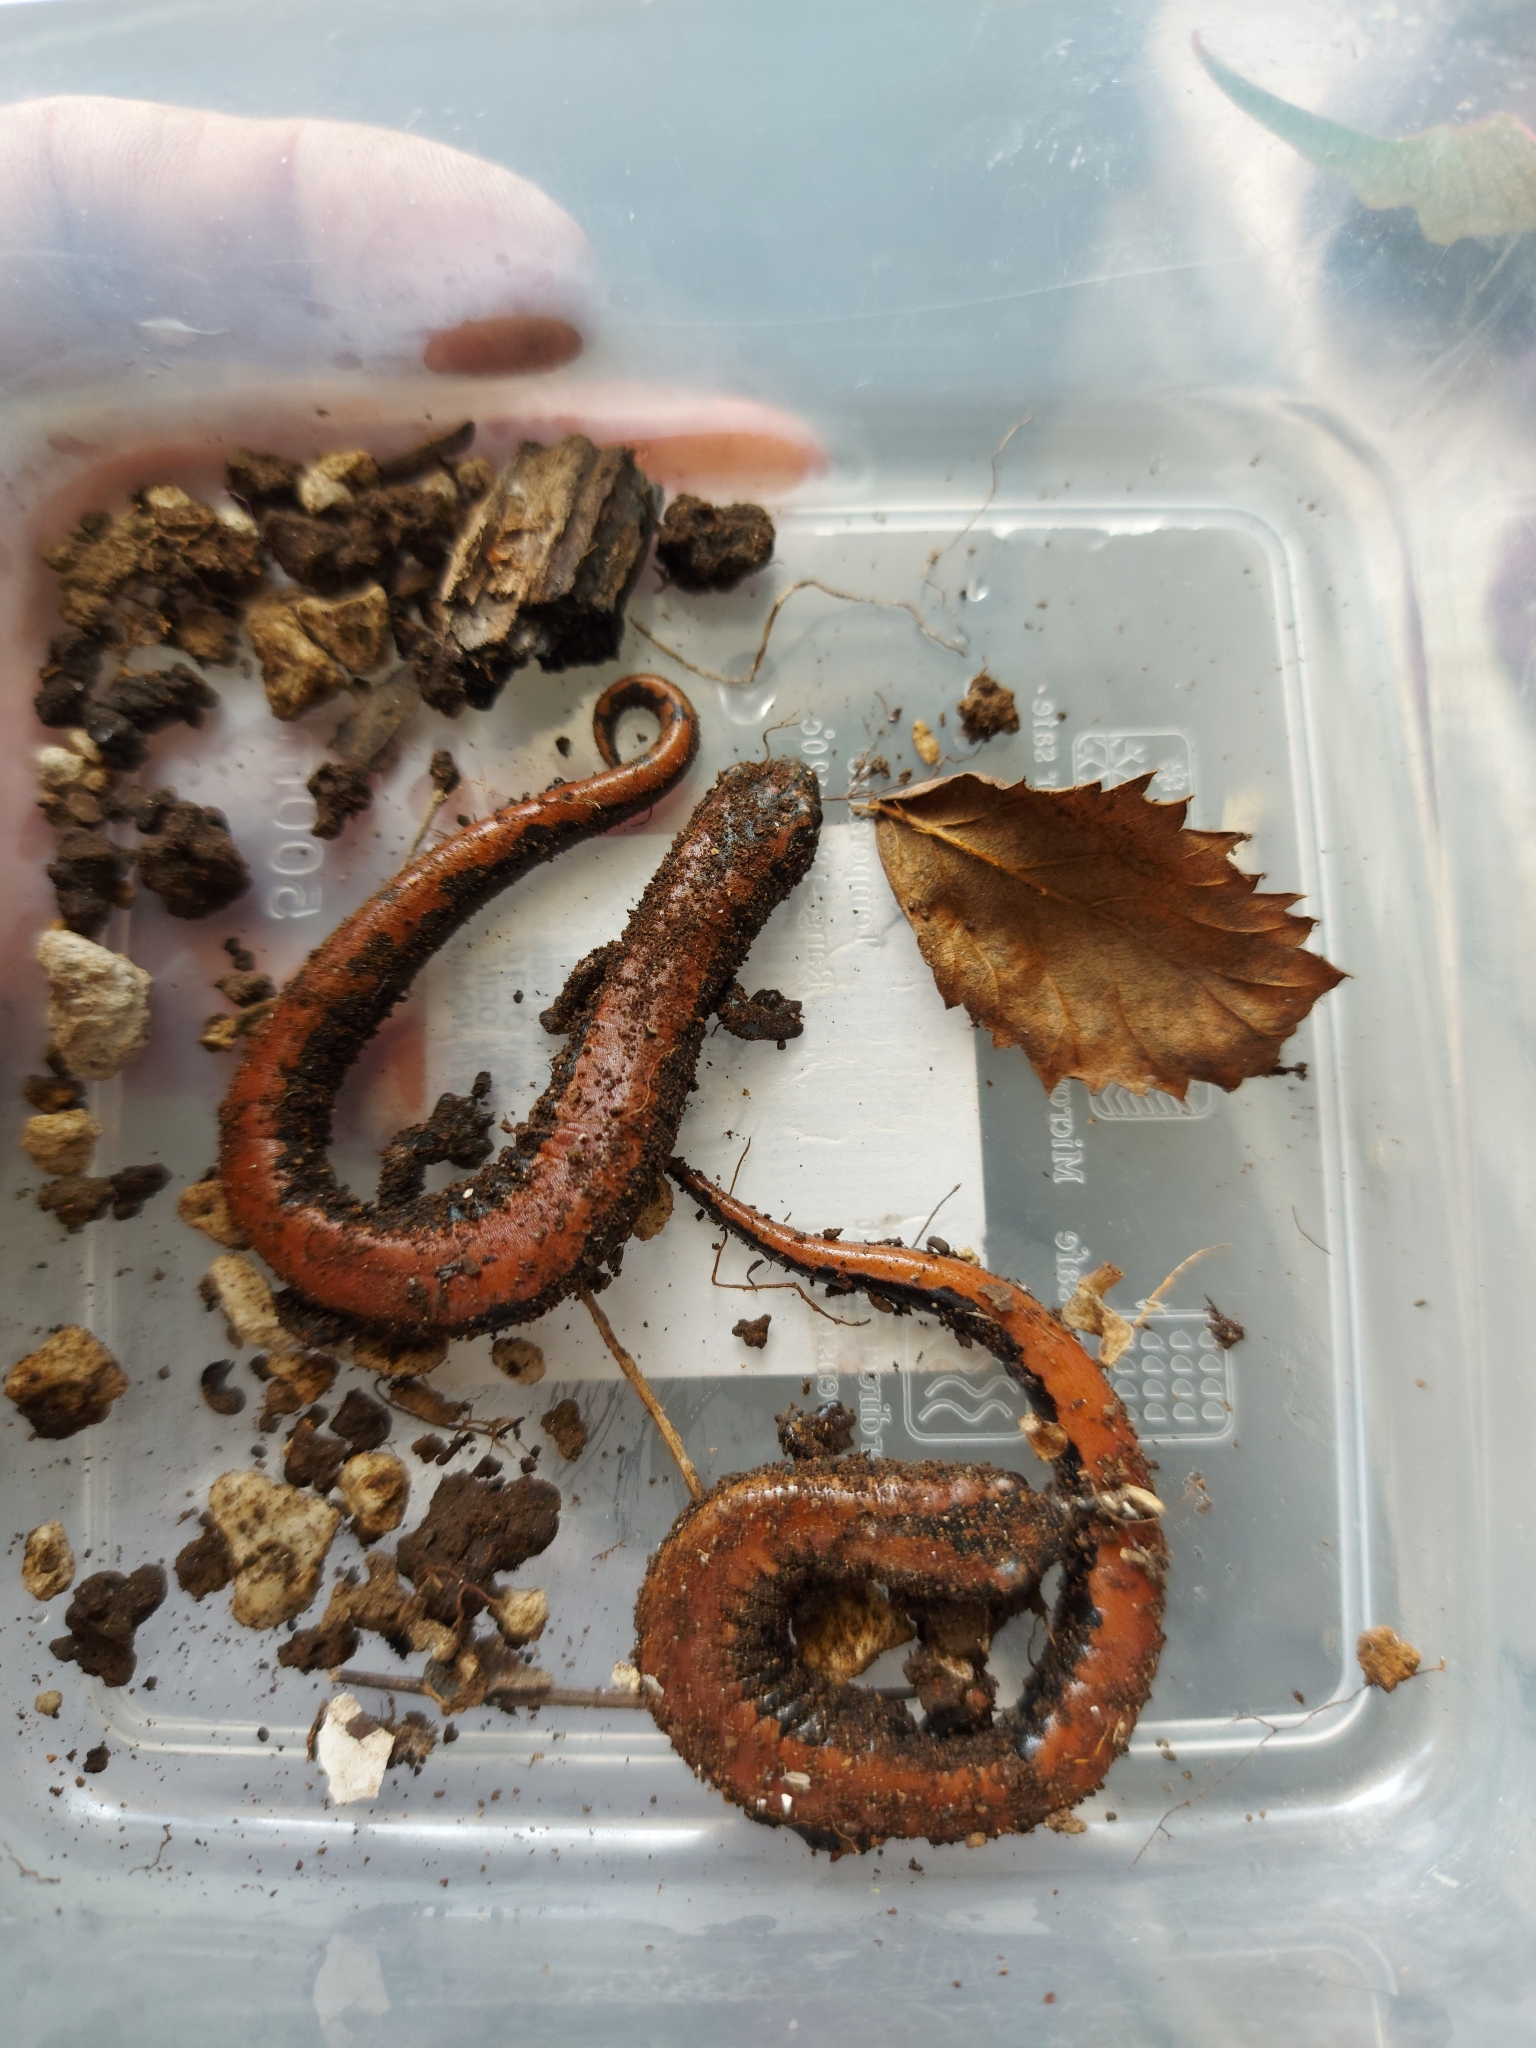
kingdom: Animalia
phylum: Chordata
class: Amphibia
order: Caudata
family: Plethodontidae
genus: Bolitoglossa
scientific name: Bolitoglossa platydactyla
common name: Broad-footed salamander
